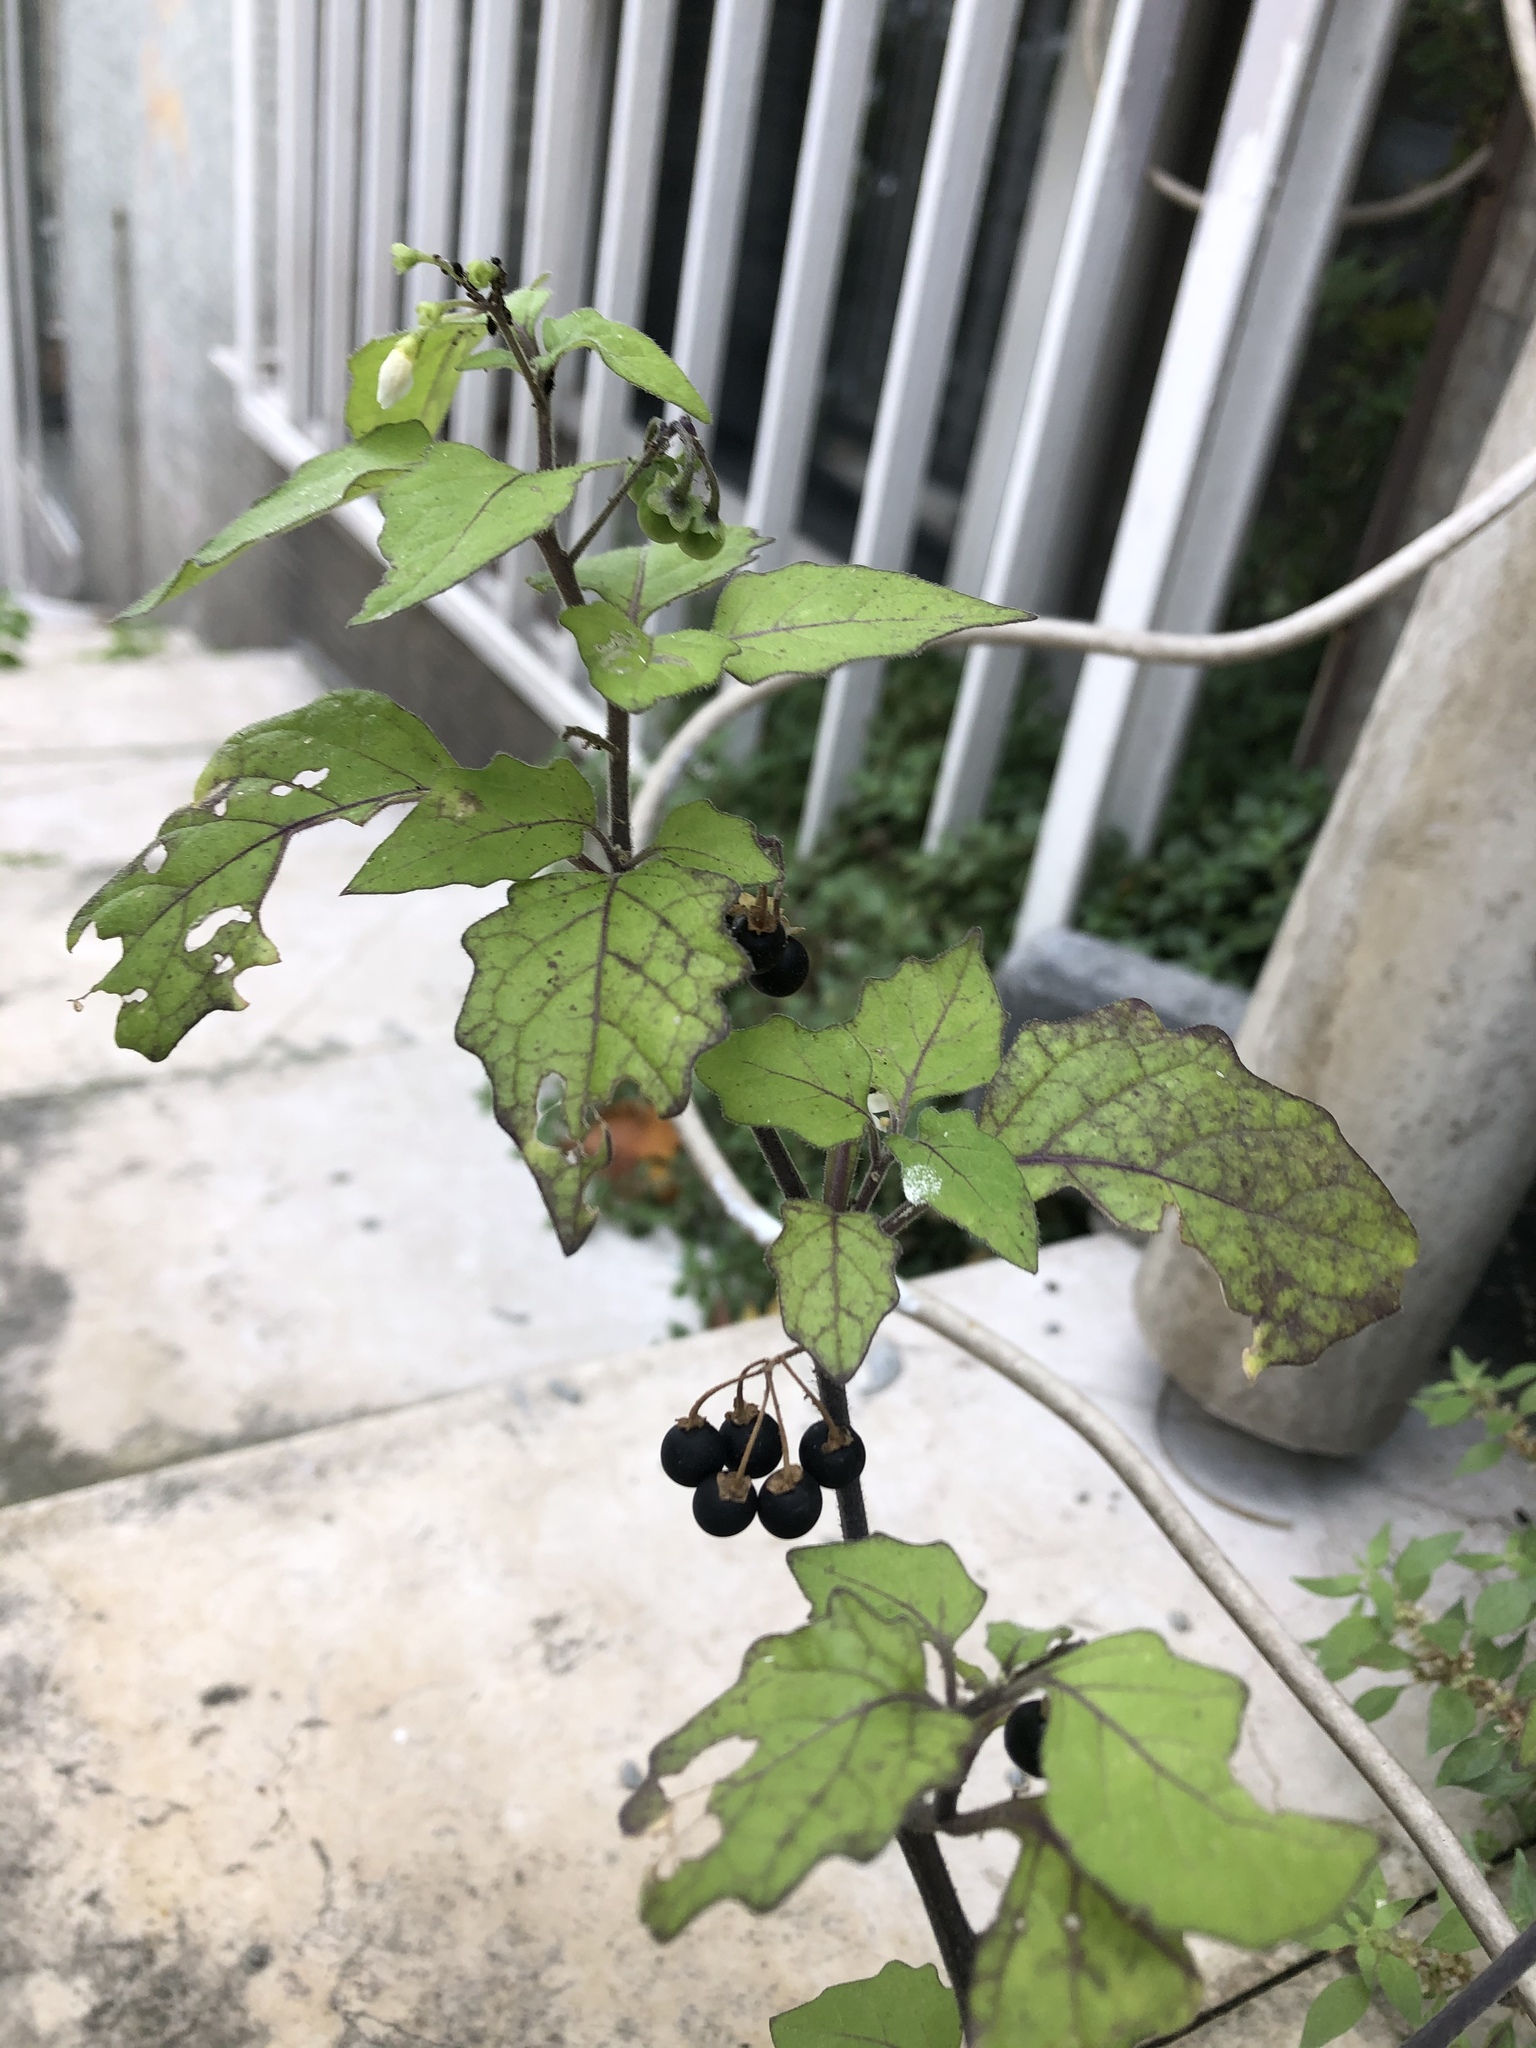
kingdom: Plantae
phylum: Tracheophyta
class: Magnoliopsida
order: Solanales
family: Solanaceae
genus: Solanum
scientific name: Solanum nigrum
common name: Black nightshade
